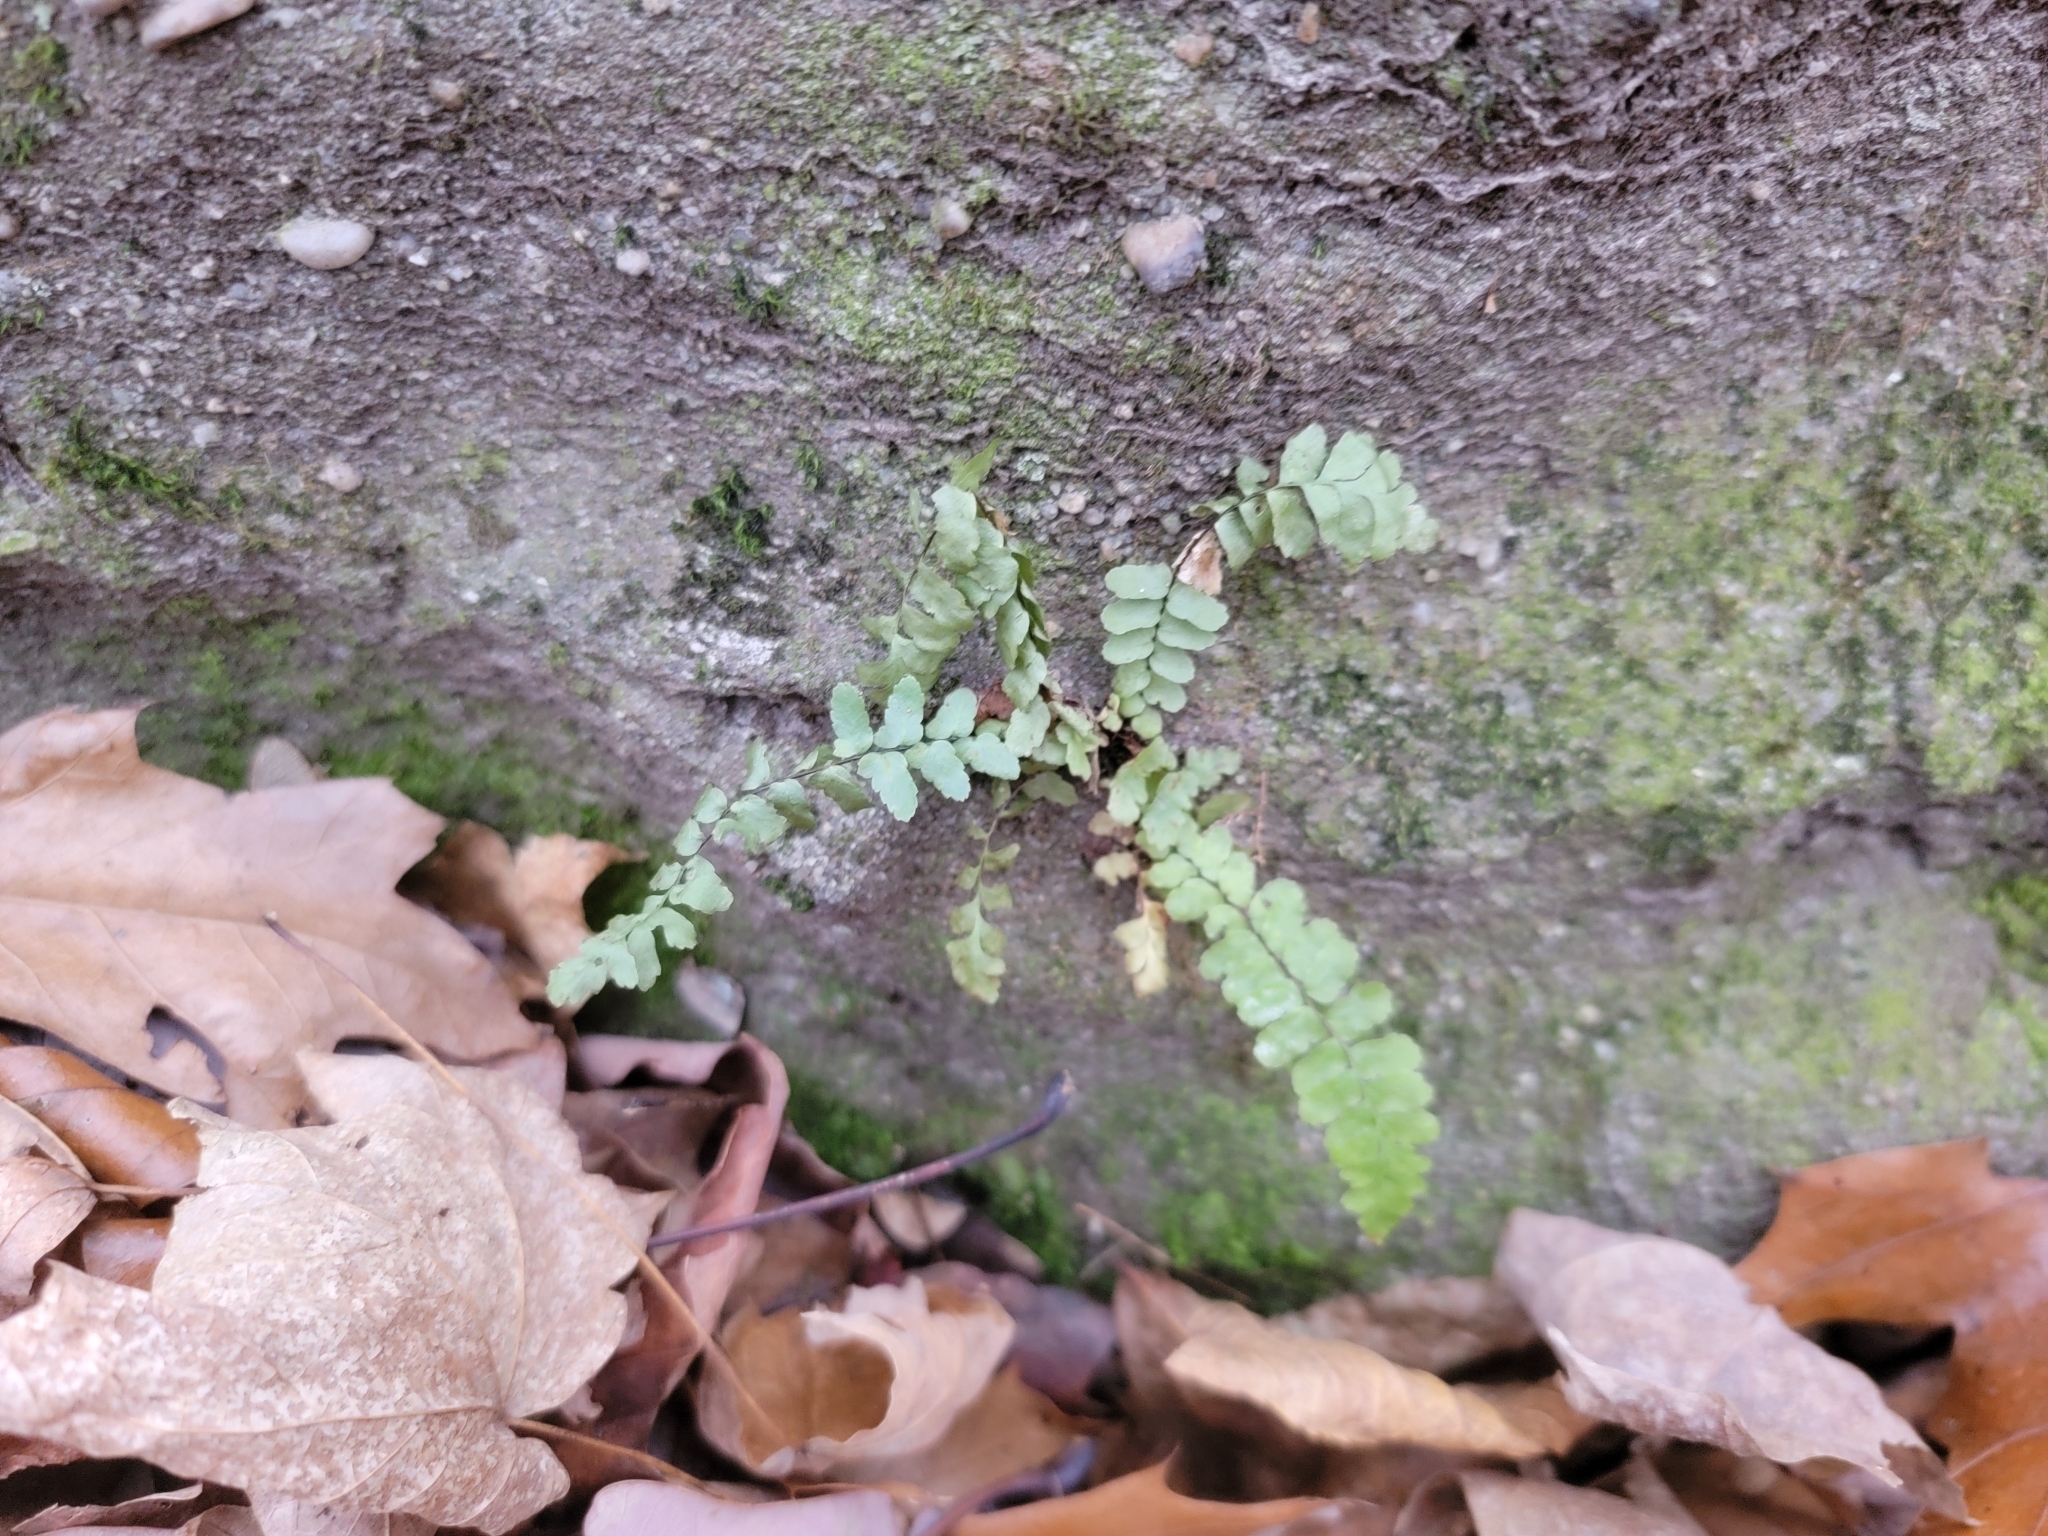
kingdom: Plantae
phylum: Tracheophyta
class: Polypodiopsida
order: Polypodiales
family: Aspleniaceae
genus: Asplenium
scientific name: Asplenium platyneuron
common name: Ebony spleenwort
